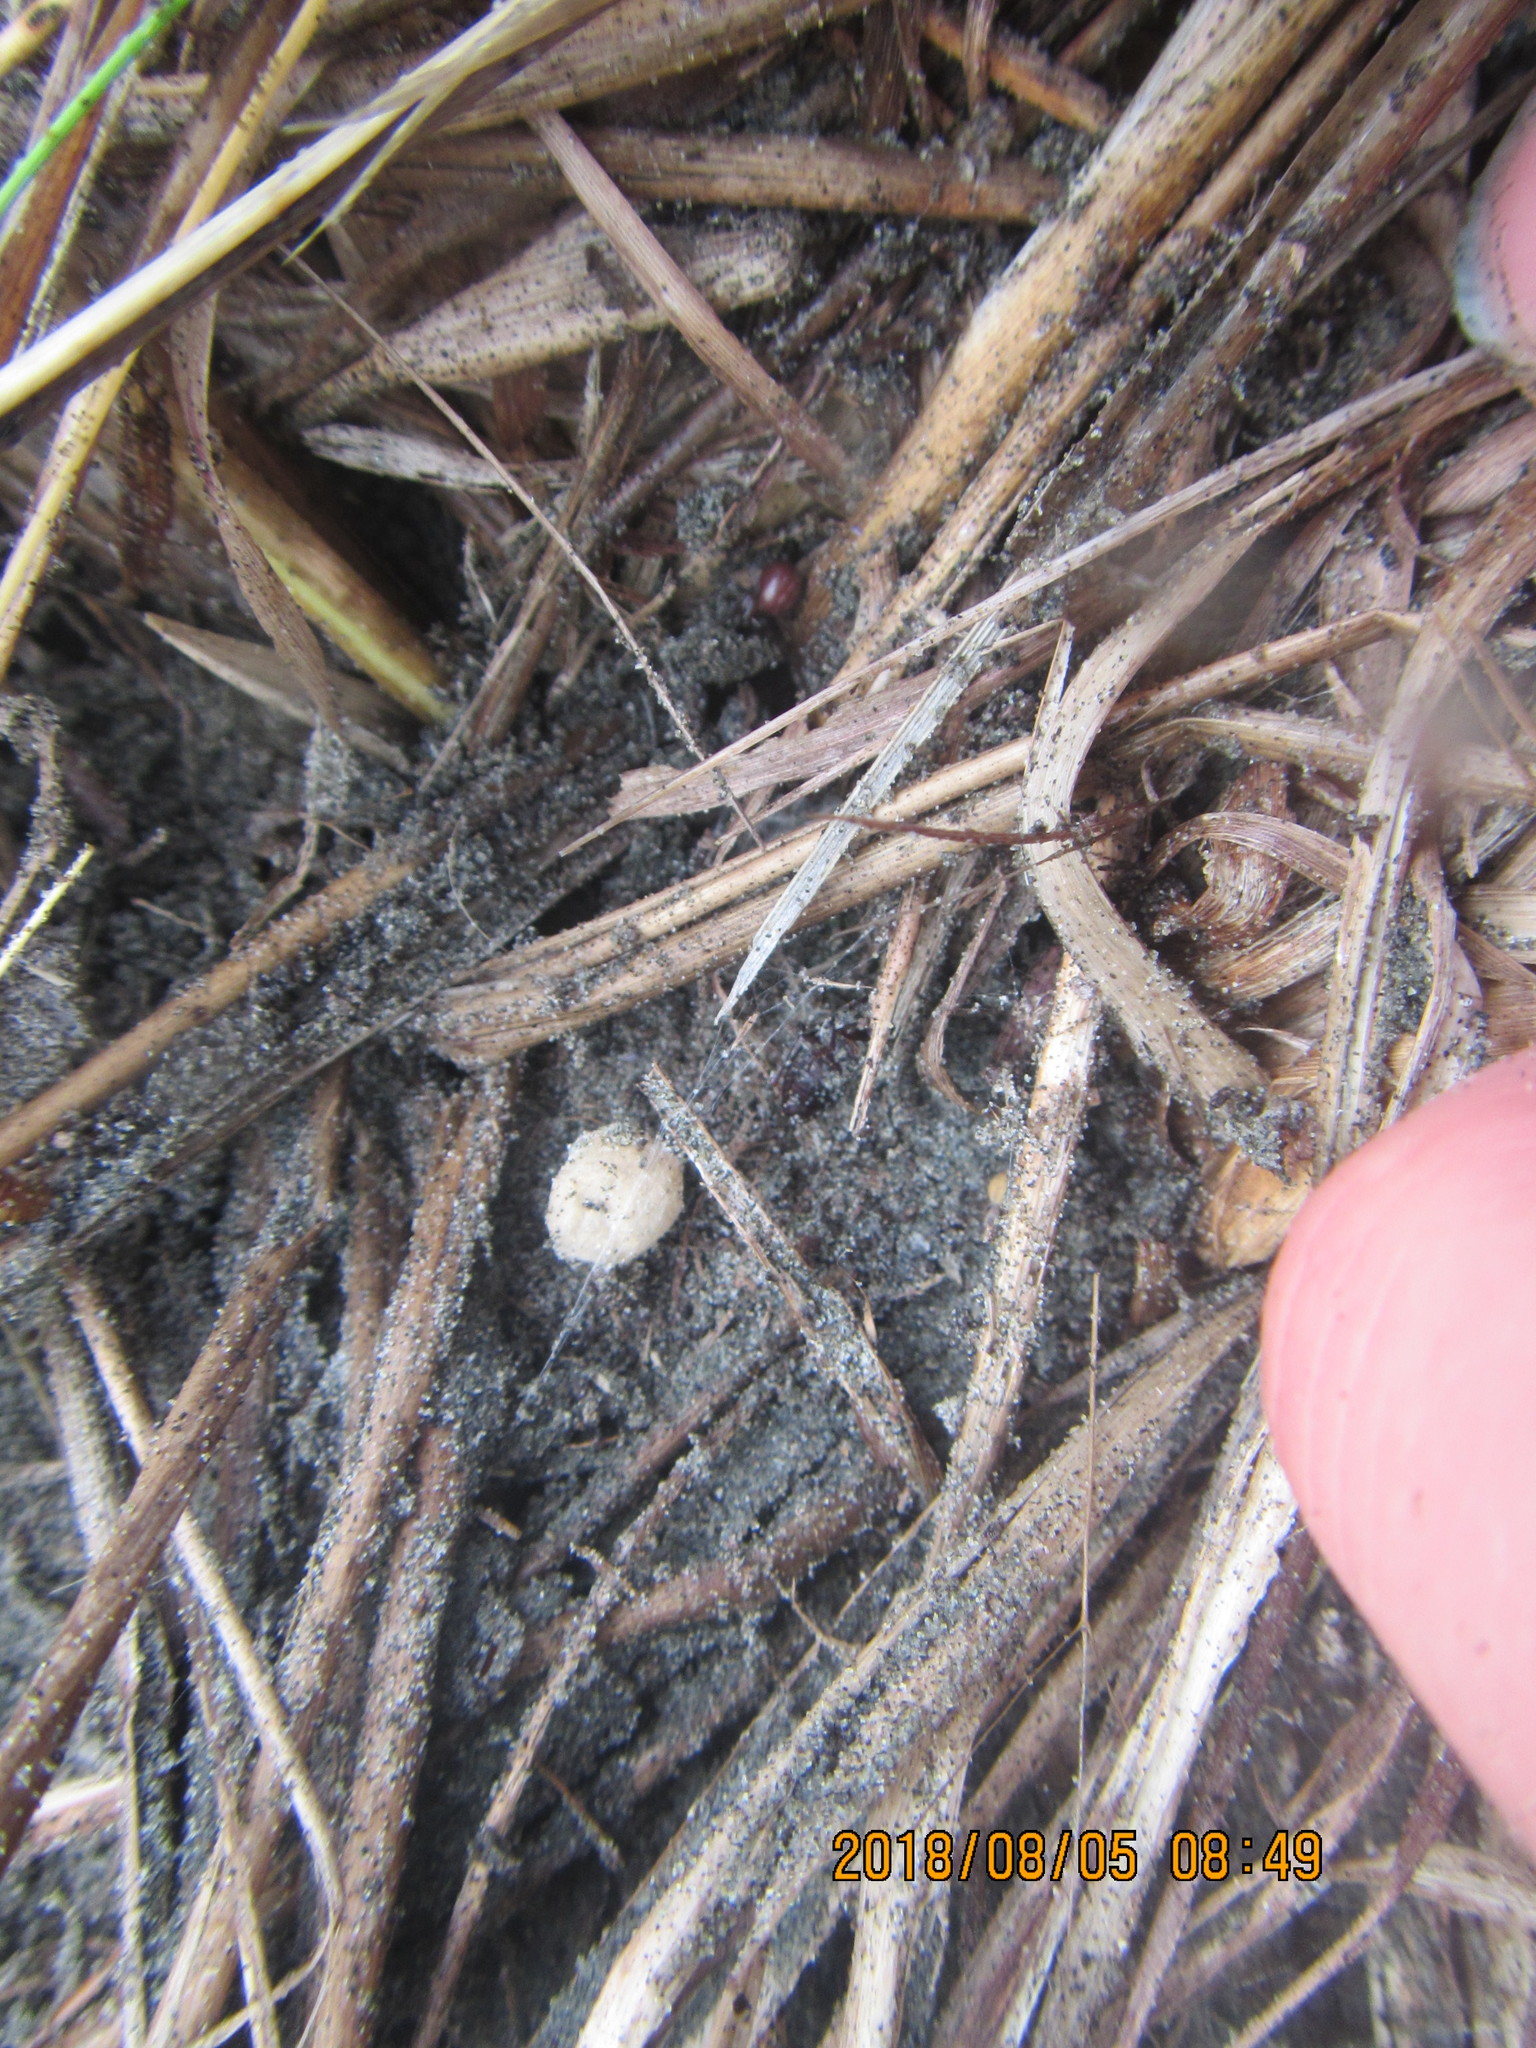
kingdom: Animalia
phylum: Arthropoda
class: Arachnida
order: Araneae
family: Theridiidae
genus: Steatoda
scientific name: Steatoda capensis
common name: Cobweb weaver
